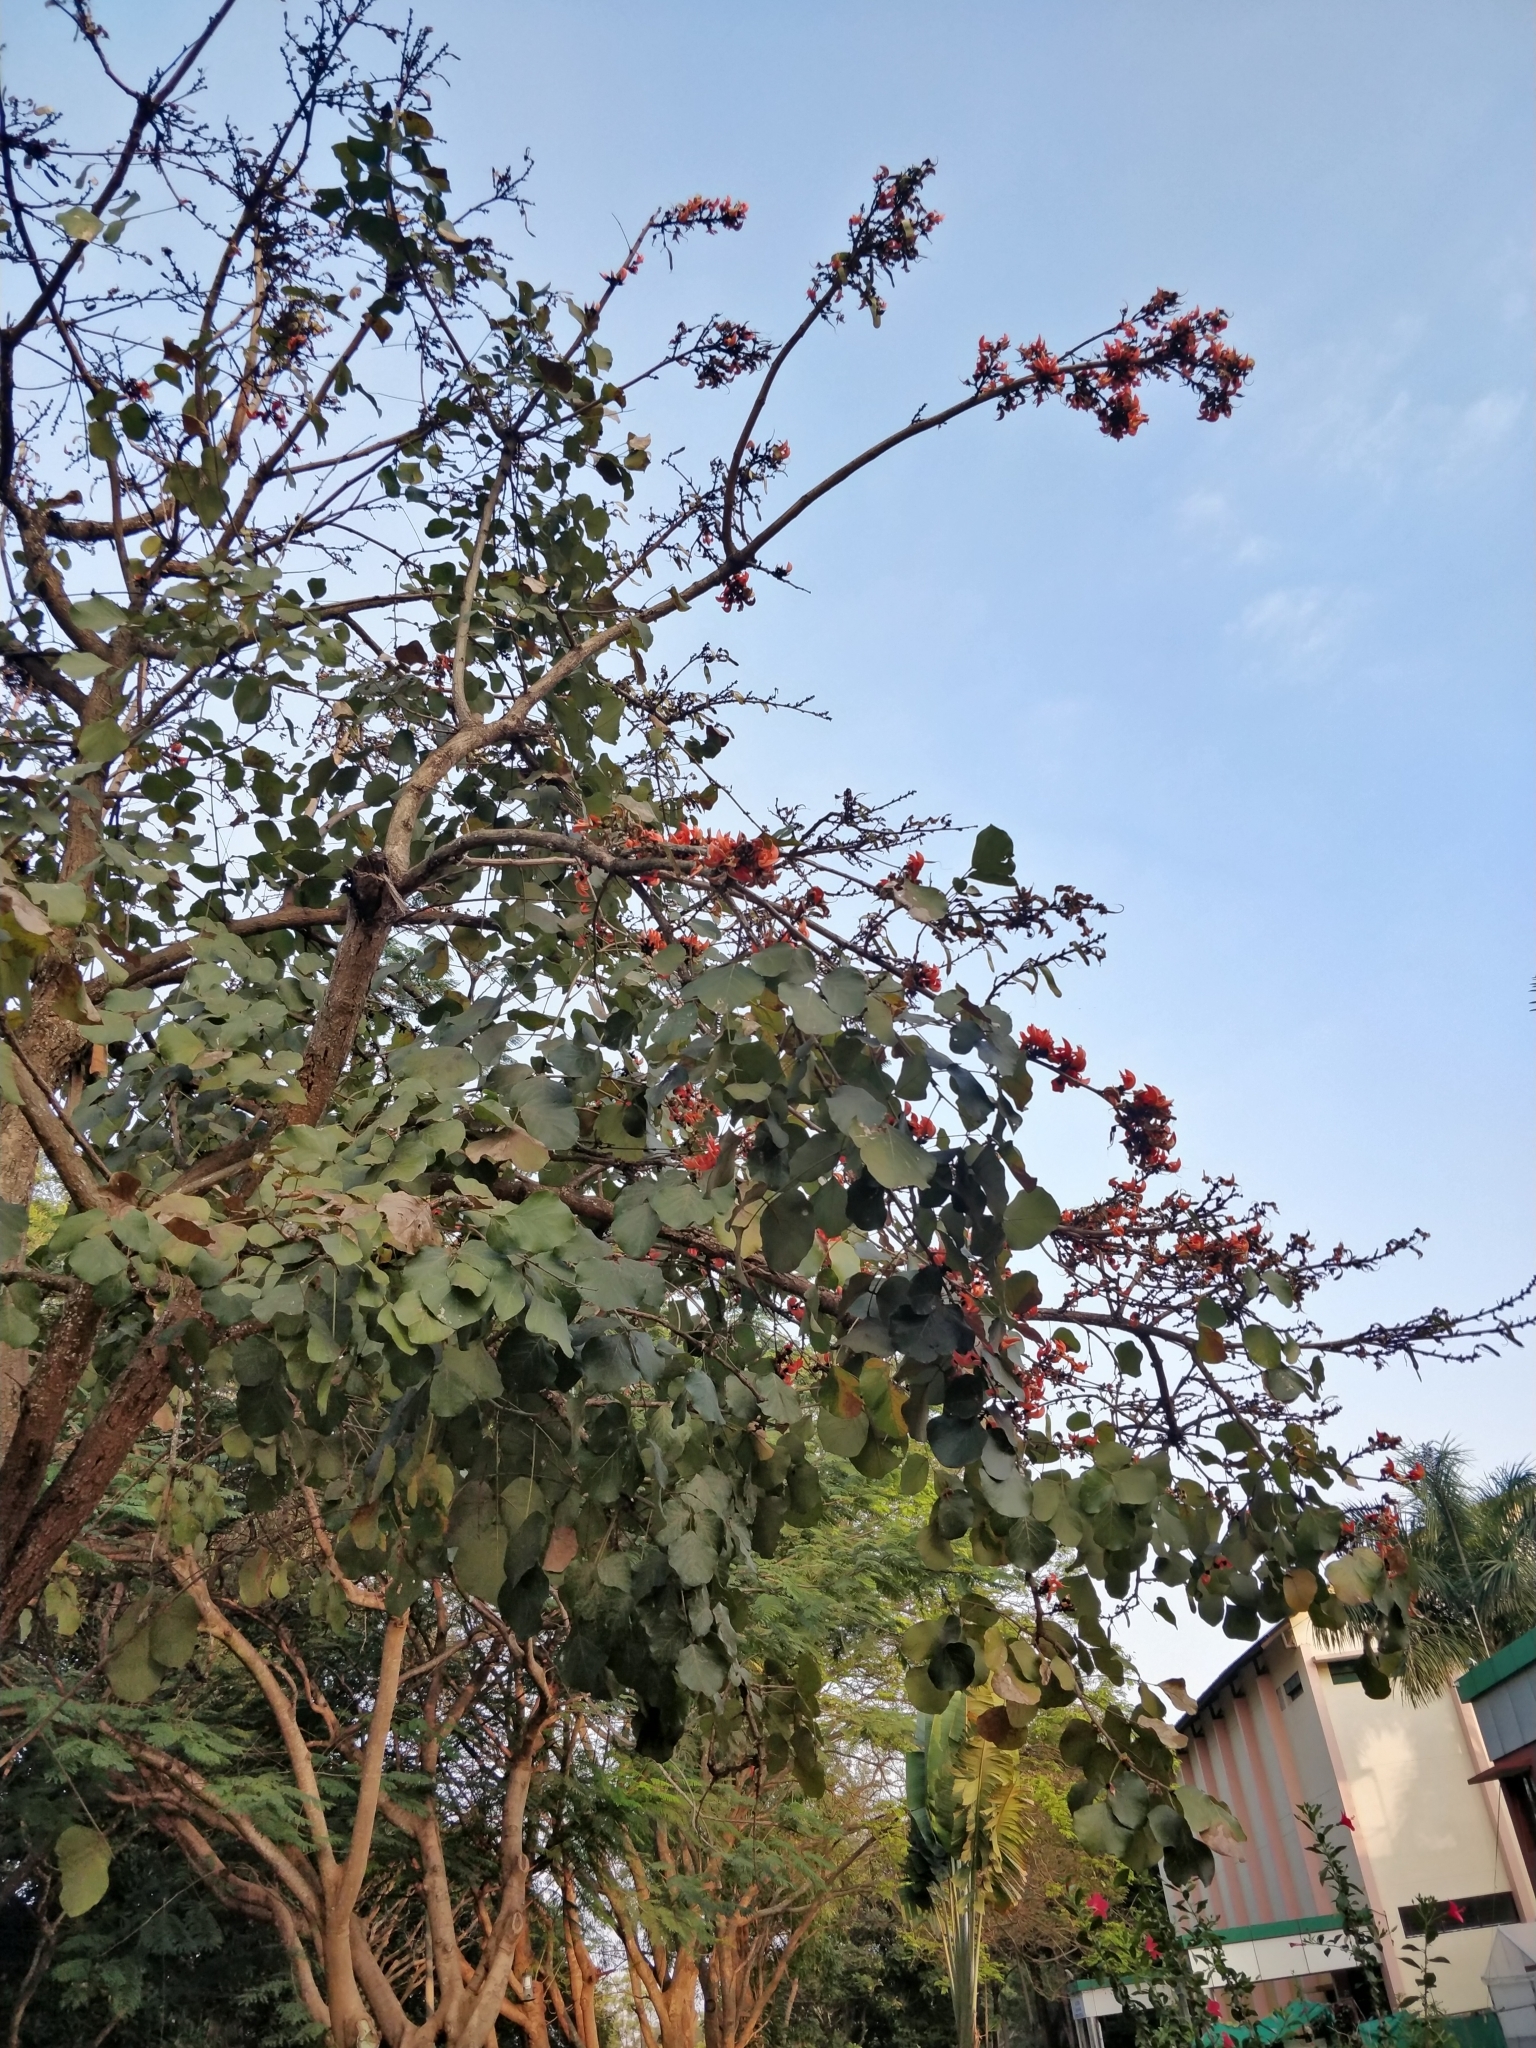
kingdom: Plantae
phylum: Tracheophyta
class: Magnoliopsida
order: Fabales
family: Fabaceae
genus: Butea
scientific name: Butea monosperma
